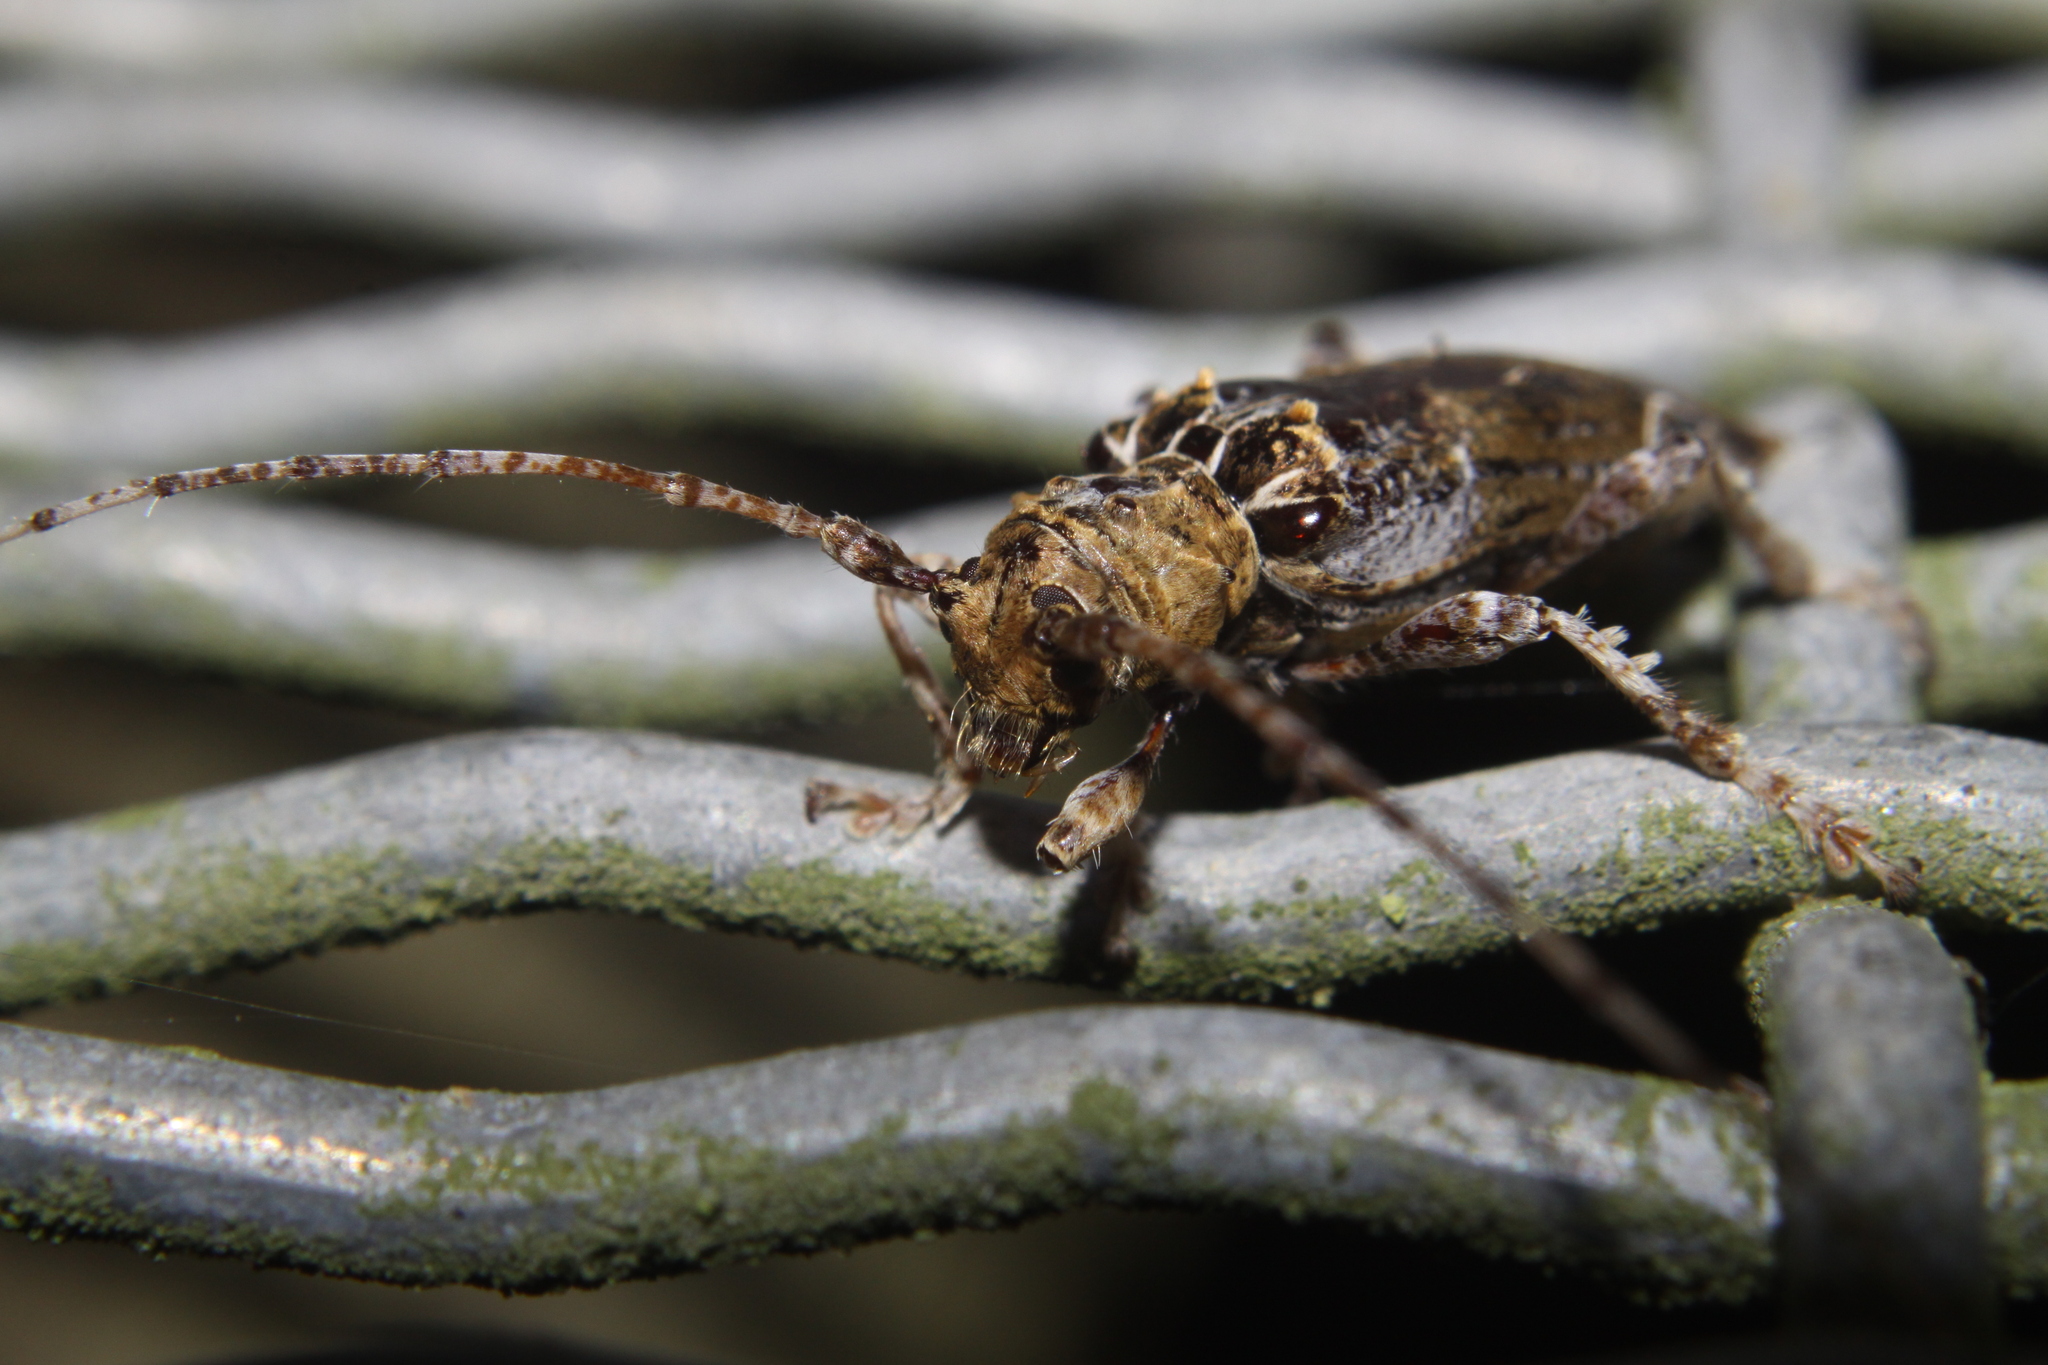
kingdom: Animalia
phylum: Arthropoda
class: Insecta
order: Coleoptera
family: Cerambycidae
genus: Tetrorea
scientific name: Tetrorea cilipes
